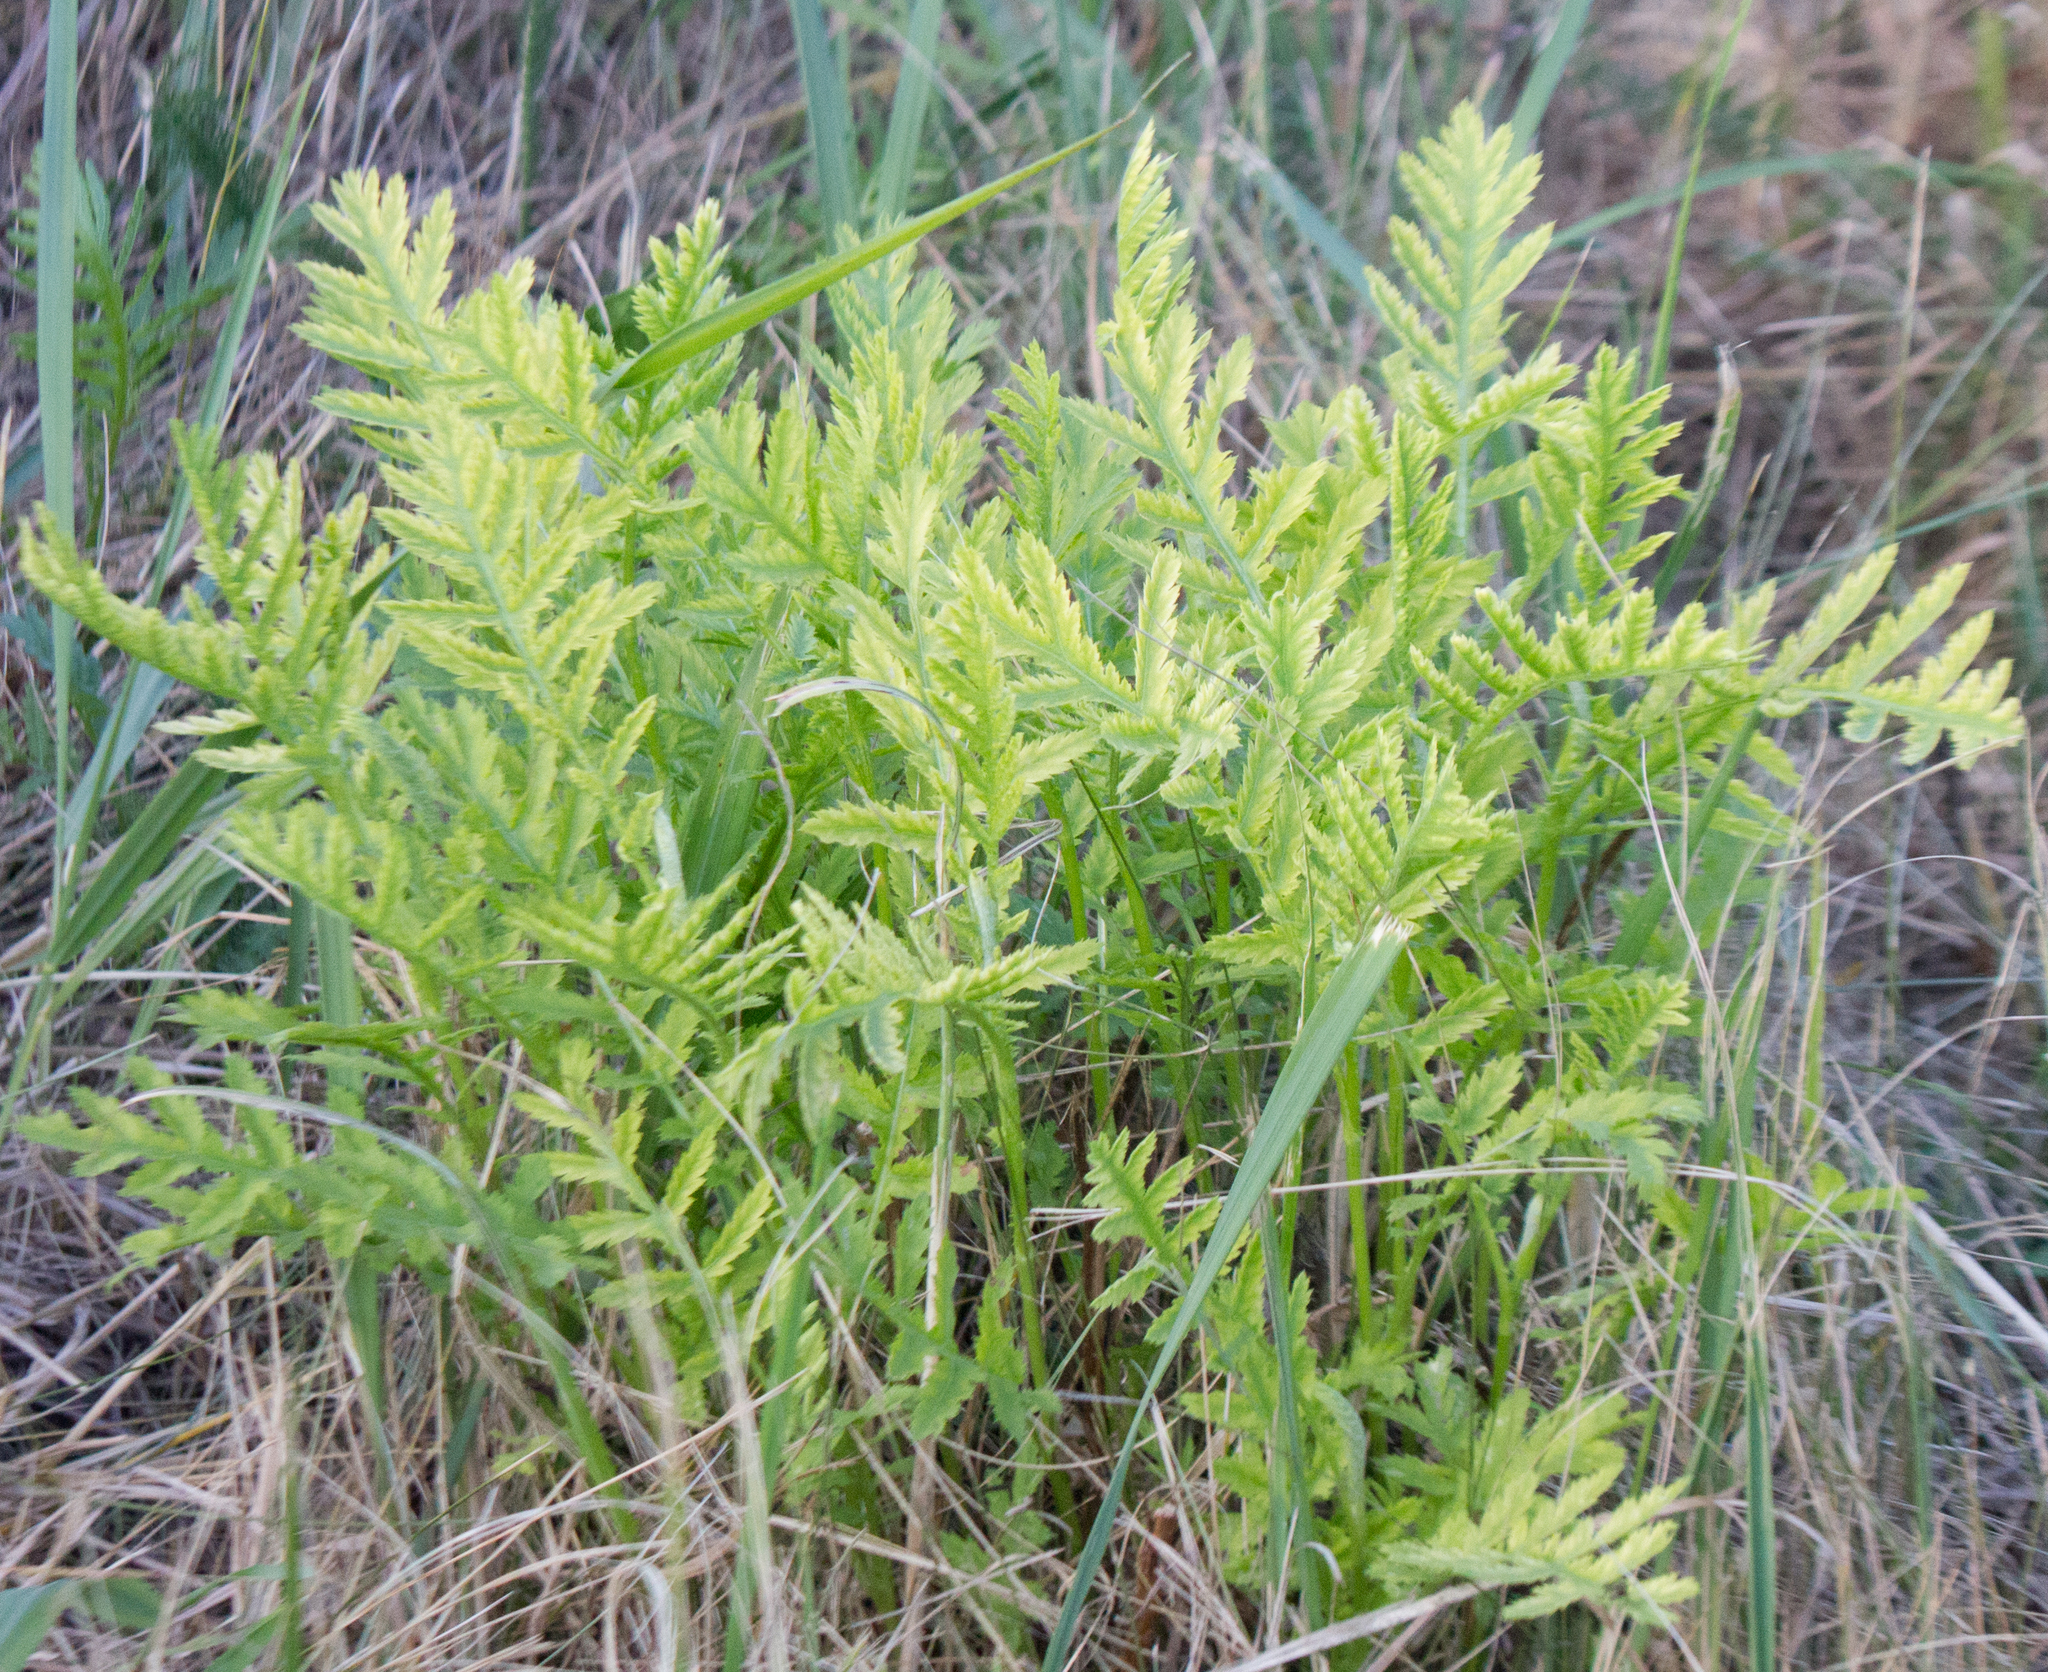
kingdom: Plantae
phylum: Tracheophyta
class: Magnoliopsida
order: Asterales
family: Asteraceae
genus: Tanacetum
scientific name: Tanacetum vulgare
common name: Common tansy
